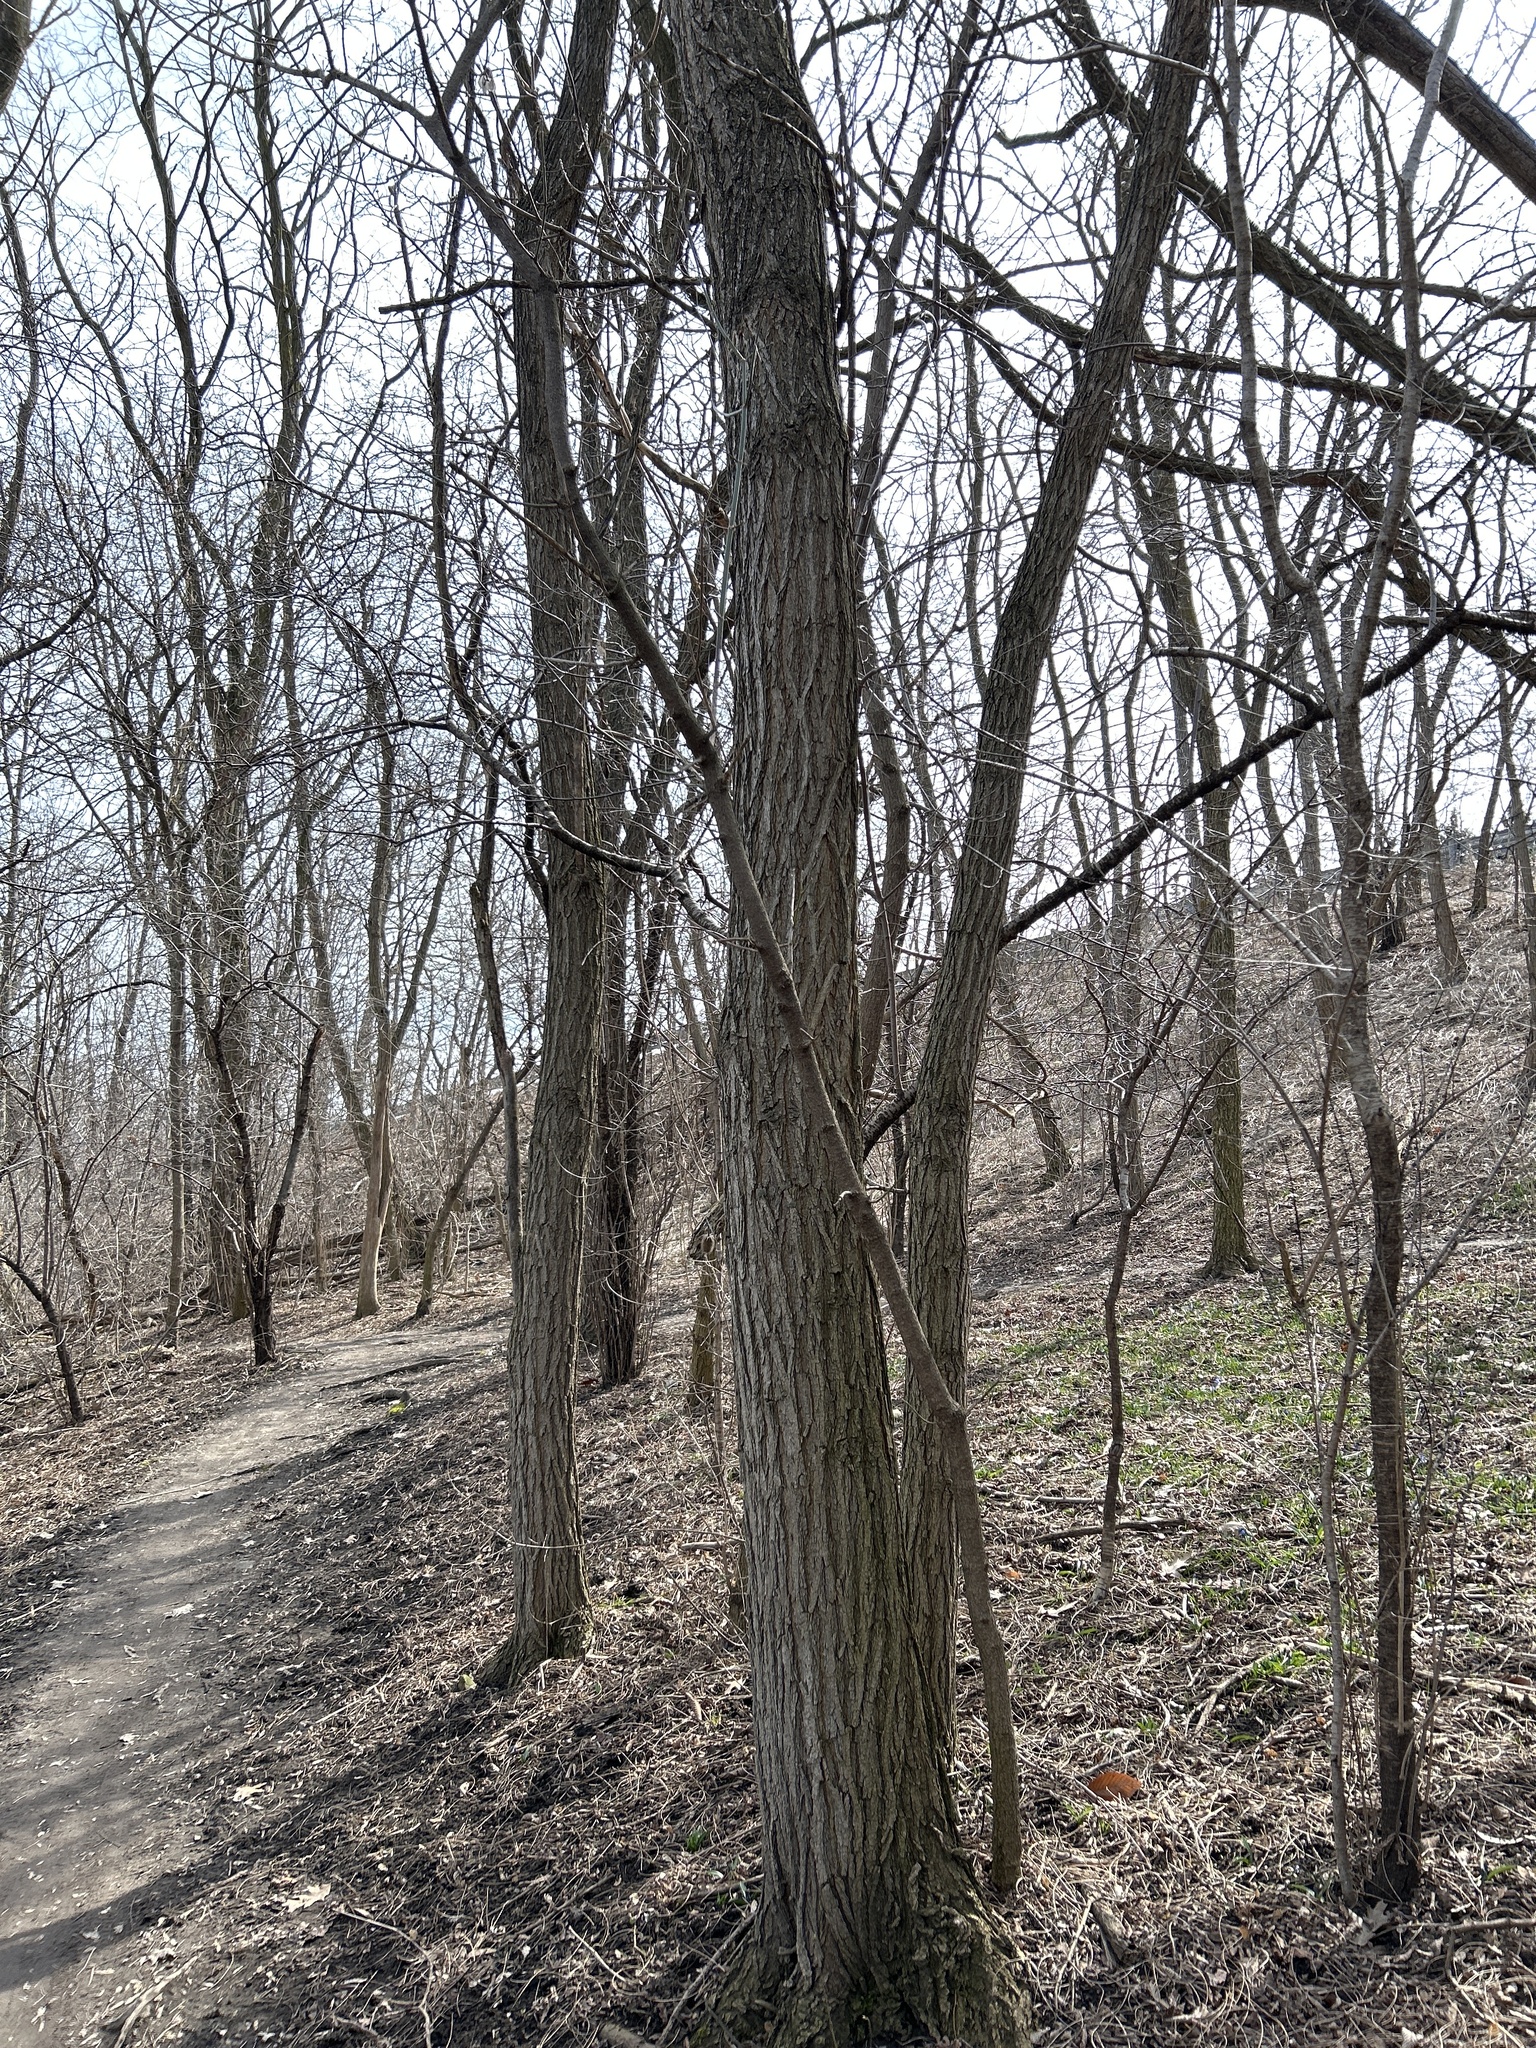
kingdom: Plantae
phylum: Tracheophyta
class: Magnoliopsida
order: Fabales
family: Fabaceae
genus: Robinia
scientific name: Robinia pseudoacacia
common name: Black locust
